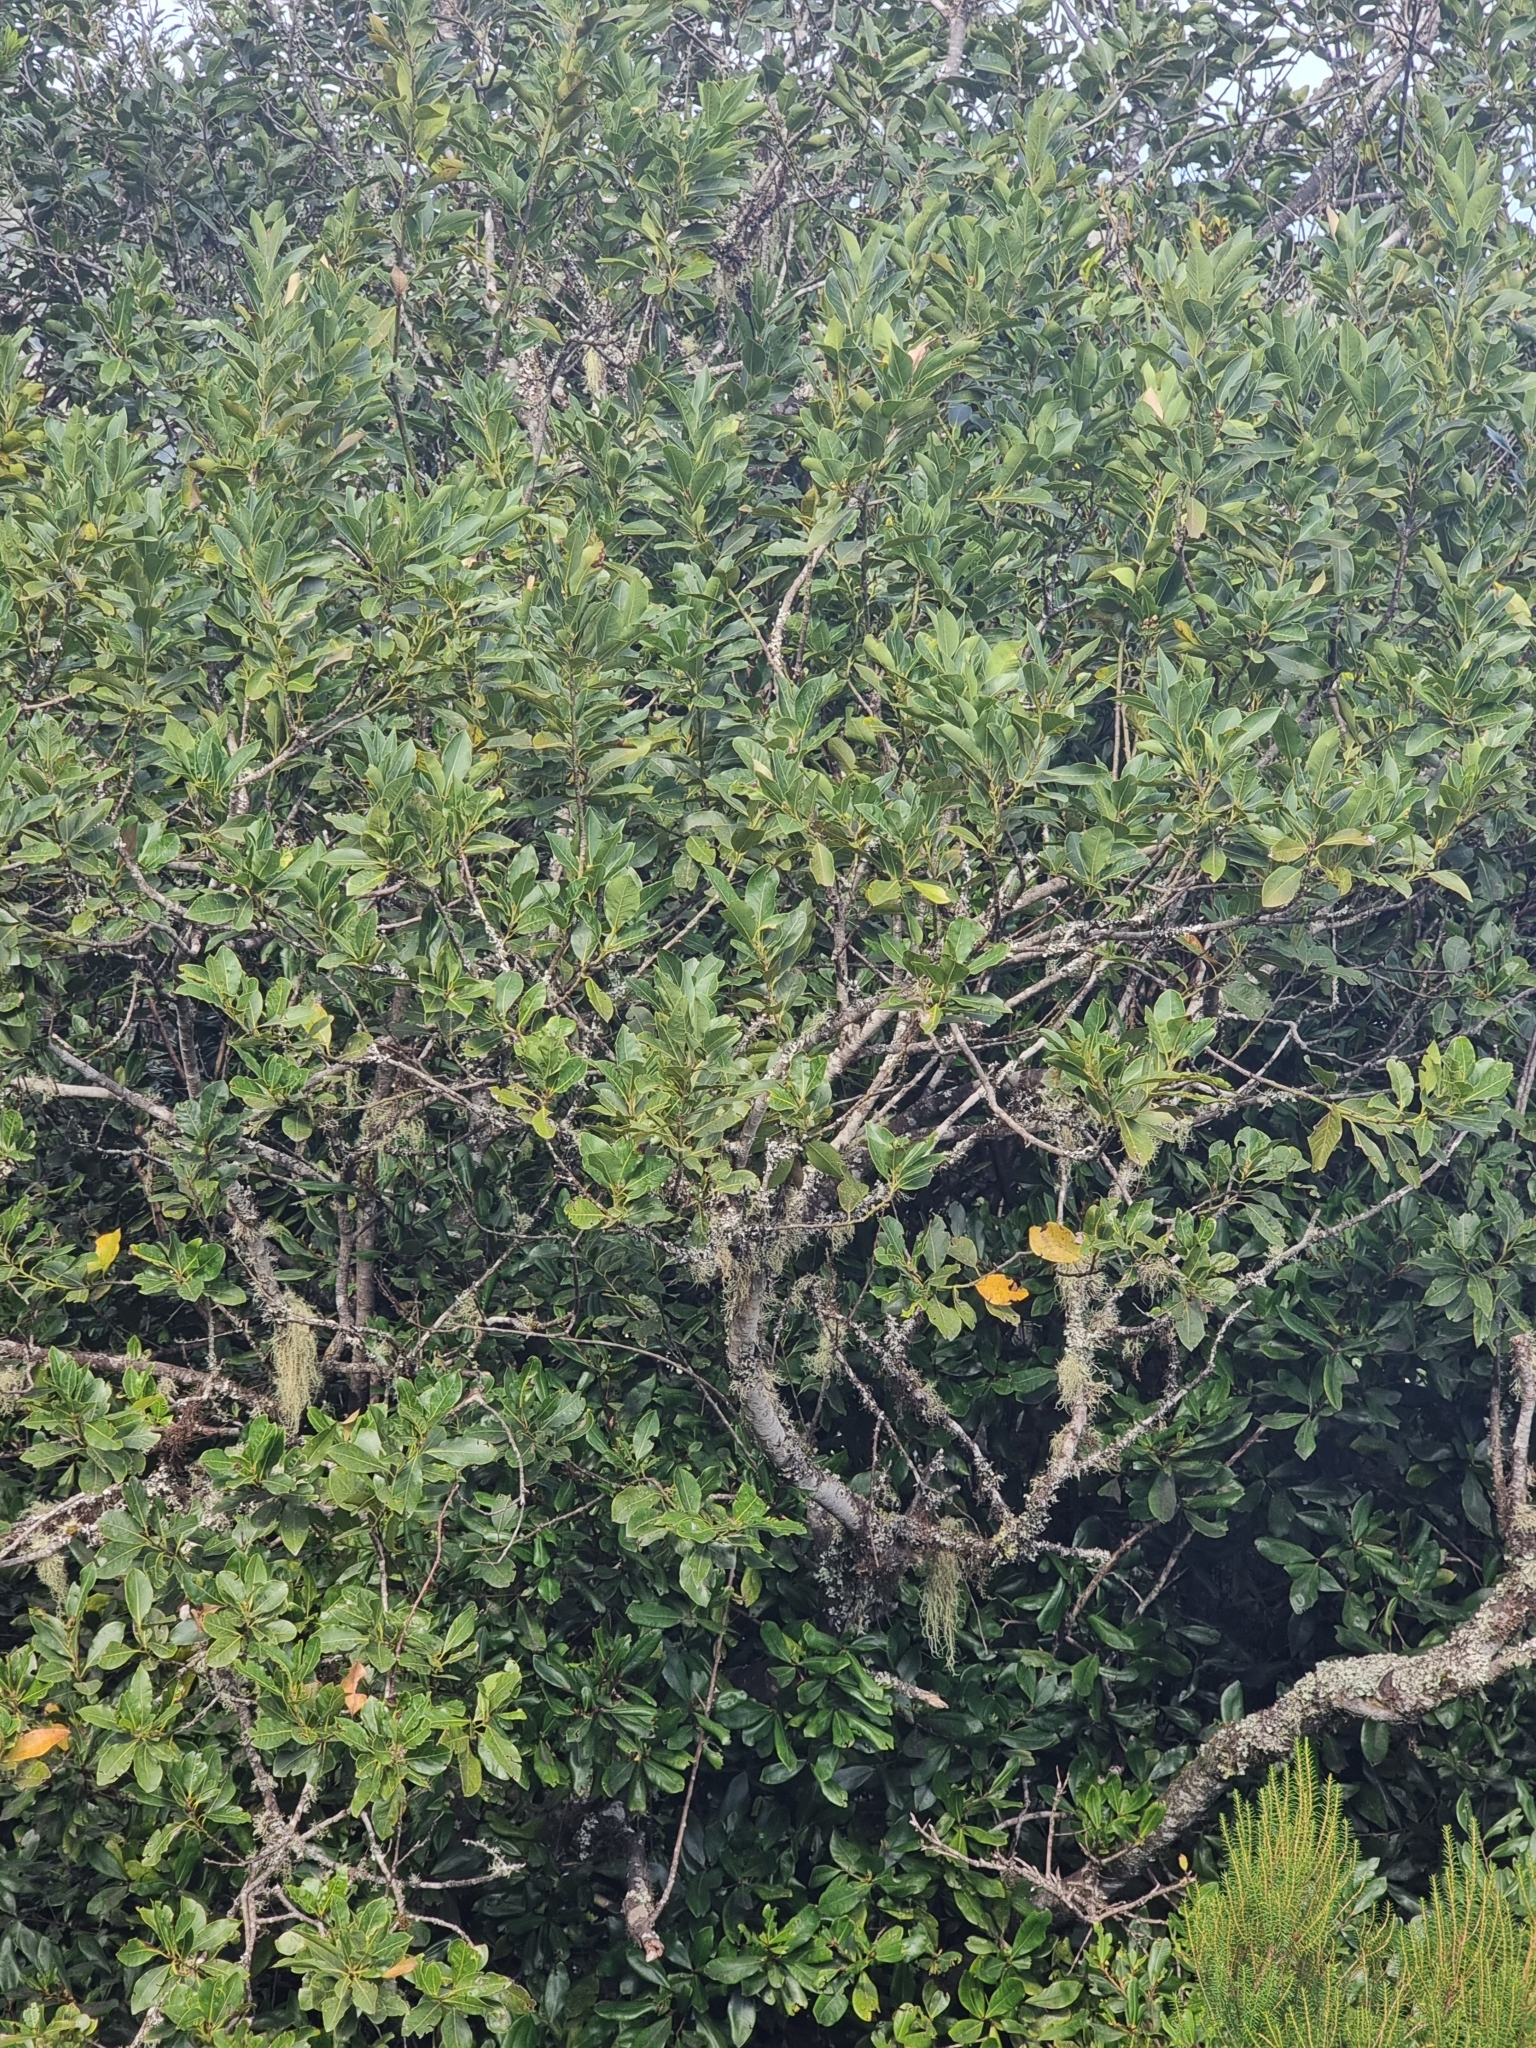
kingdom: Plantae
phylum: Tracheophyta
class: Magnoliopsida
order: Laurales
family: Lauraceae
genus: Laurus
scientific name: Laurus novocanariensis
